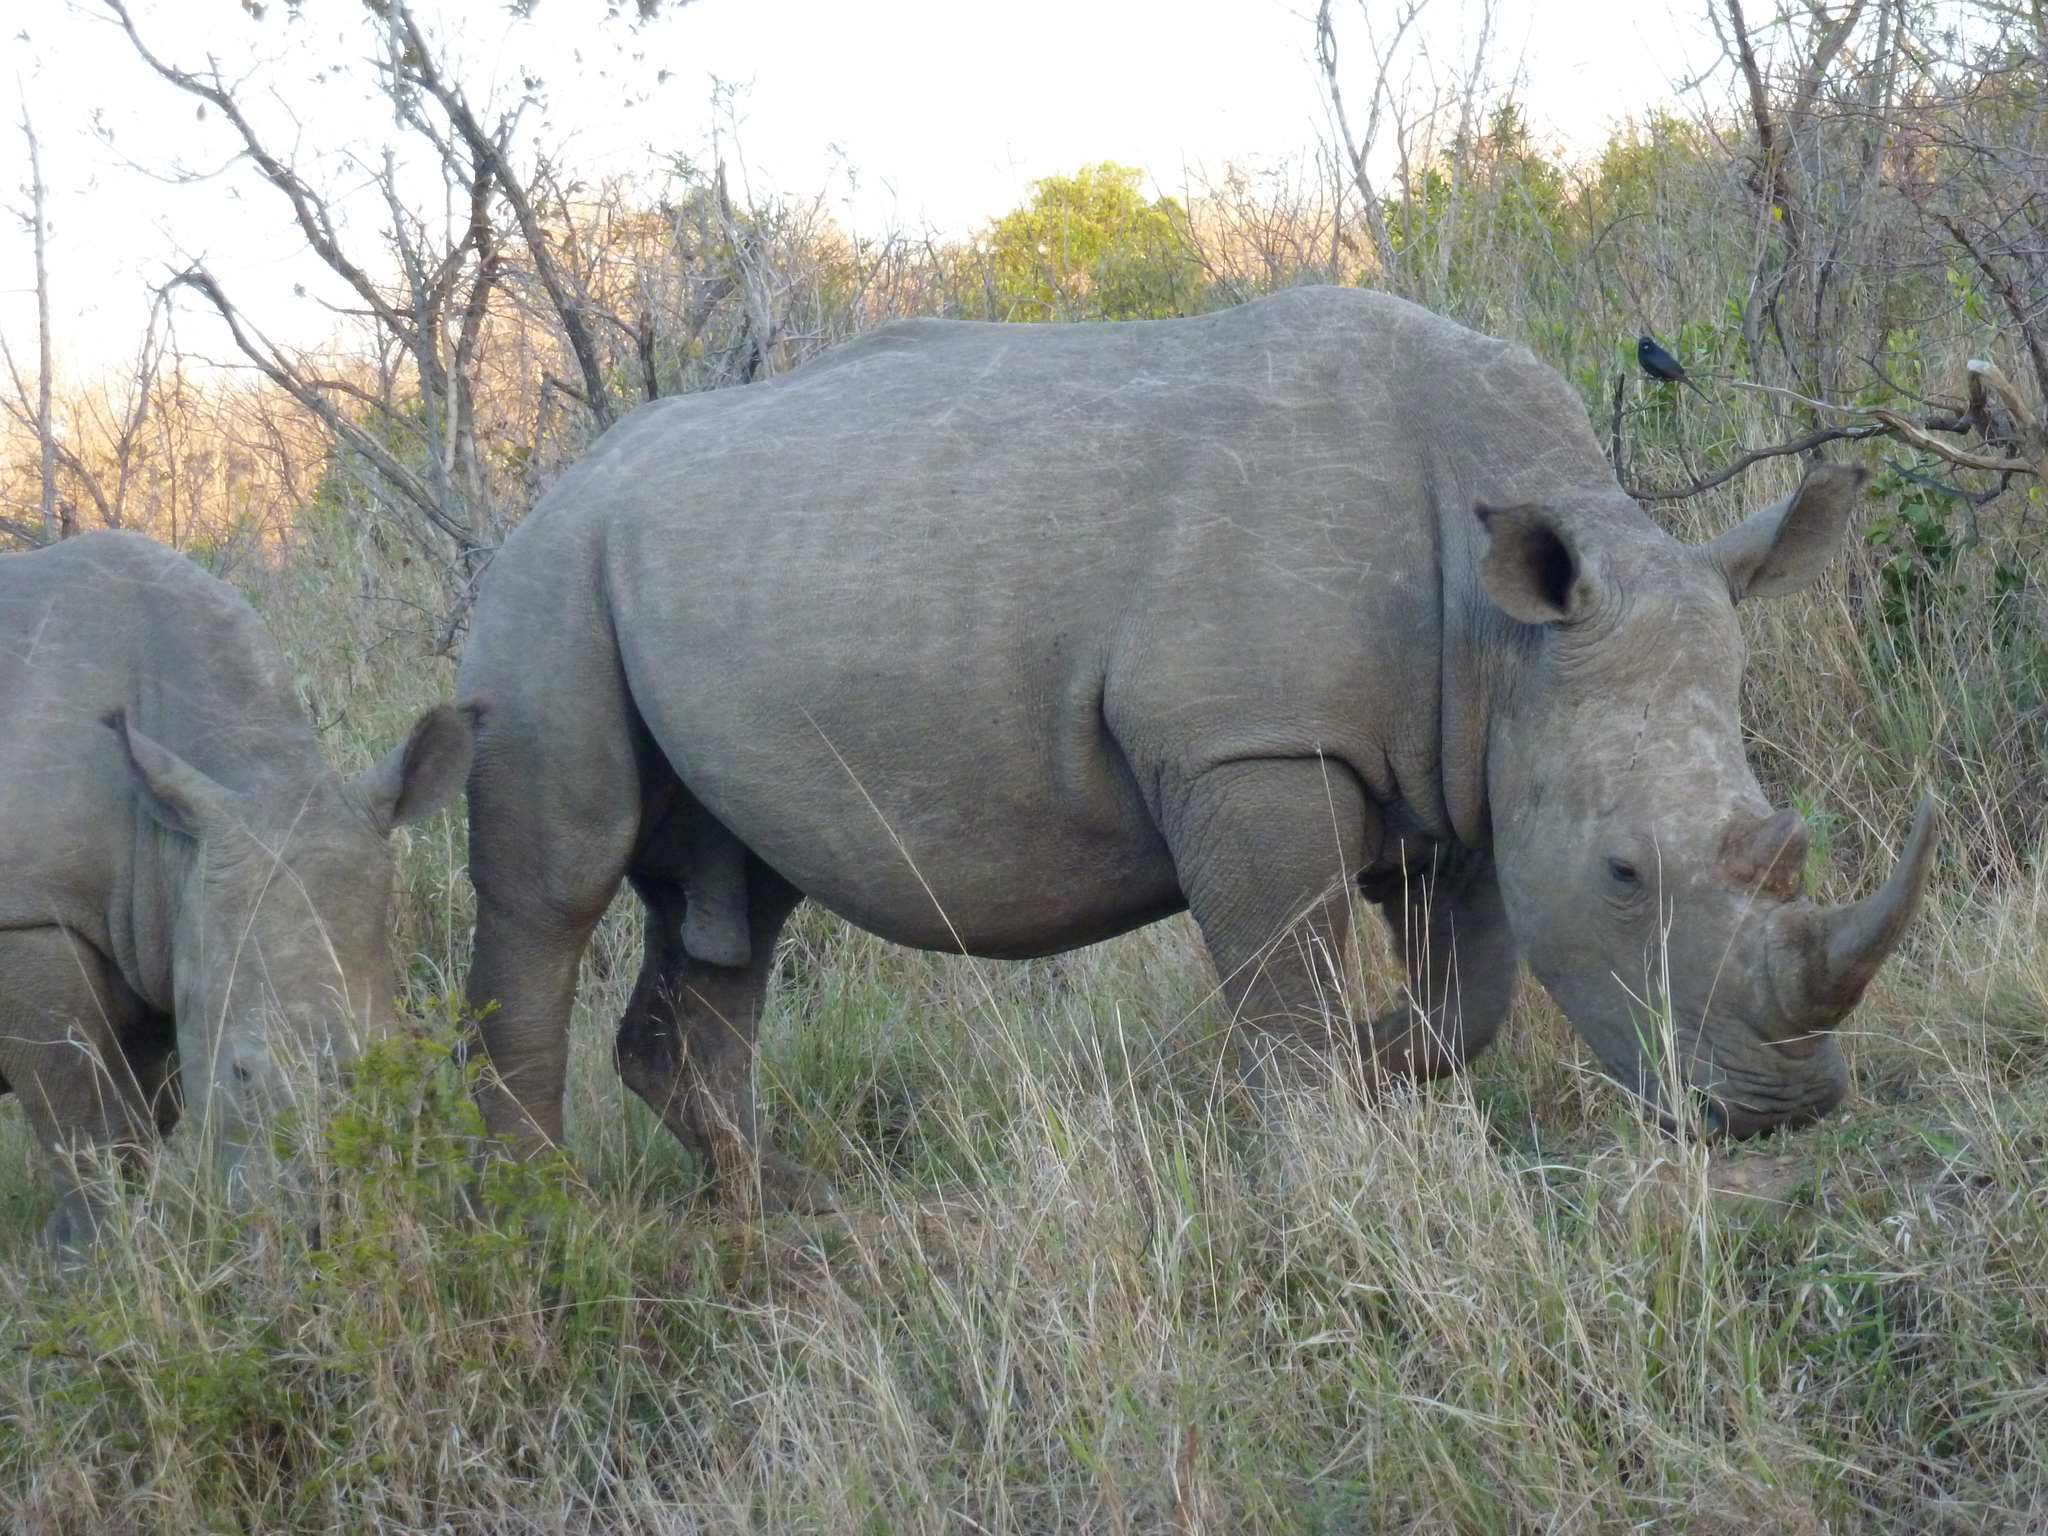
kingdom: Animalia
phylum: Chordata
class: Mammalia
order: Perissodactyla
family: Rhinocerotidae
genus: Ceratotherium
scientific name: Ceratotherium simum
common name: White rhinoceros
